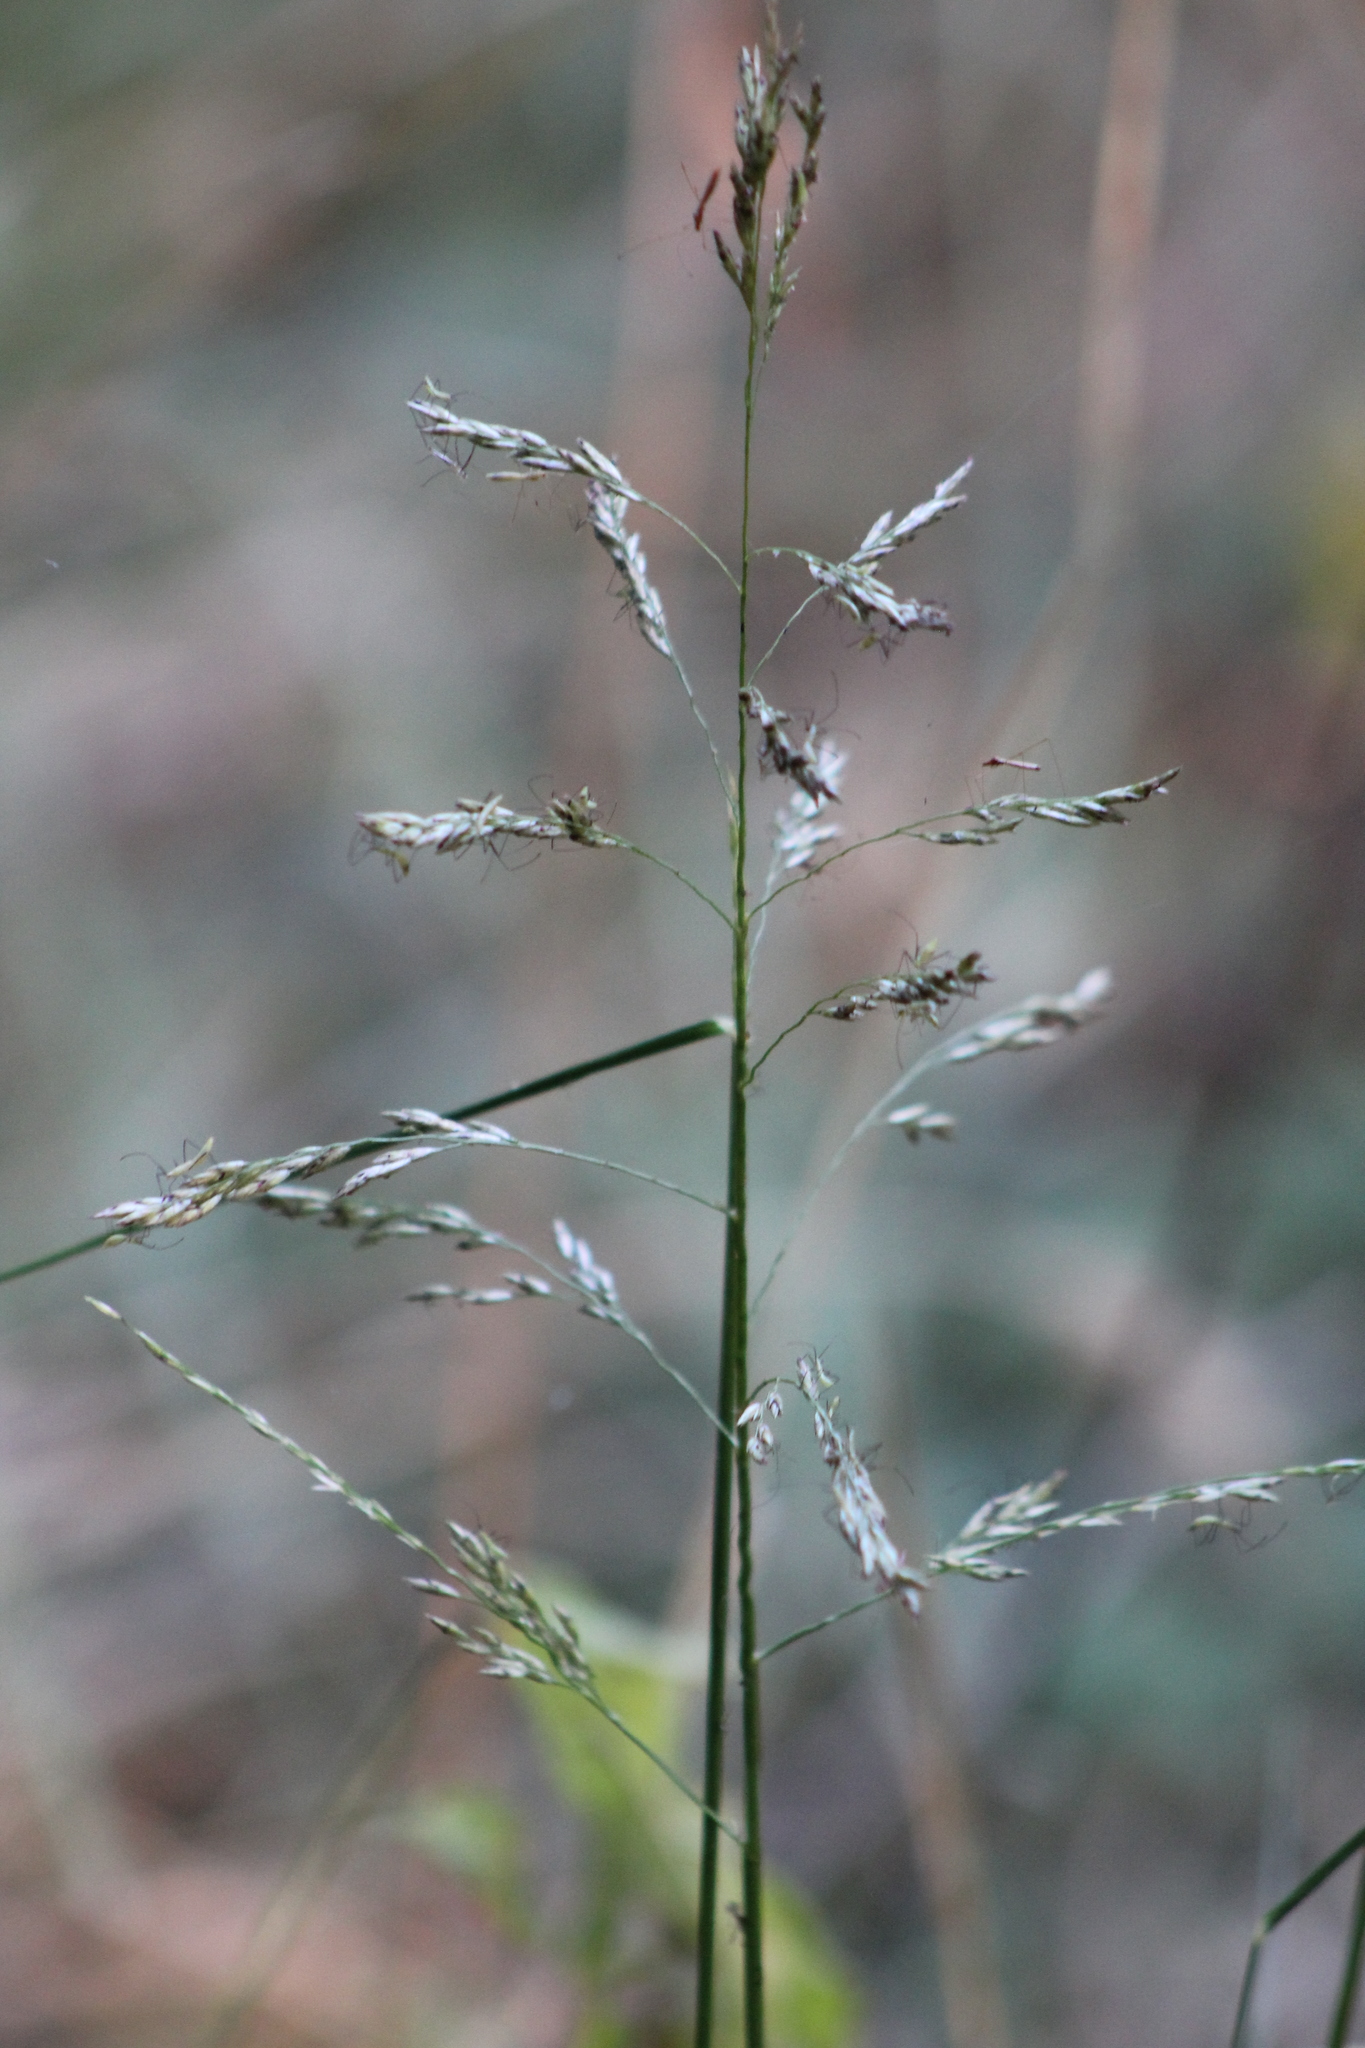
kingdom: Plantae
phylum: Tracheophyta
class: Liliopsida
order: Poales
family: Poaceae
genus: Tridens
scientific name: Tridens flavus
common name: Purpletop
